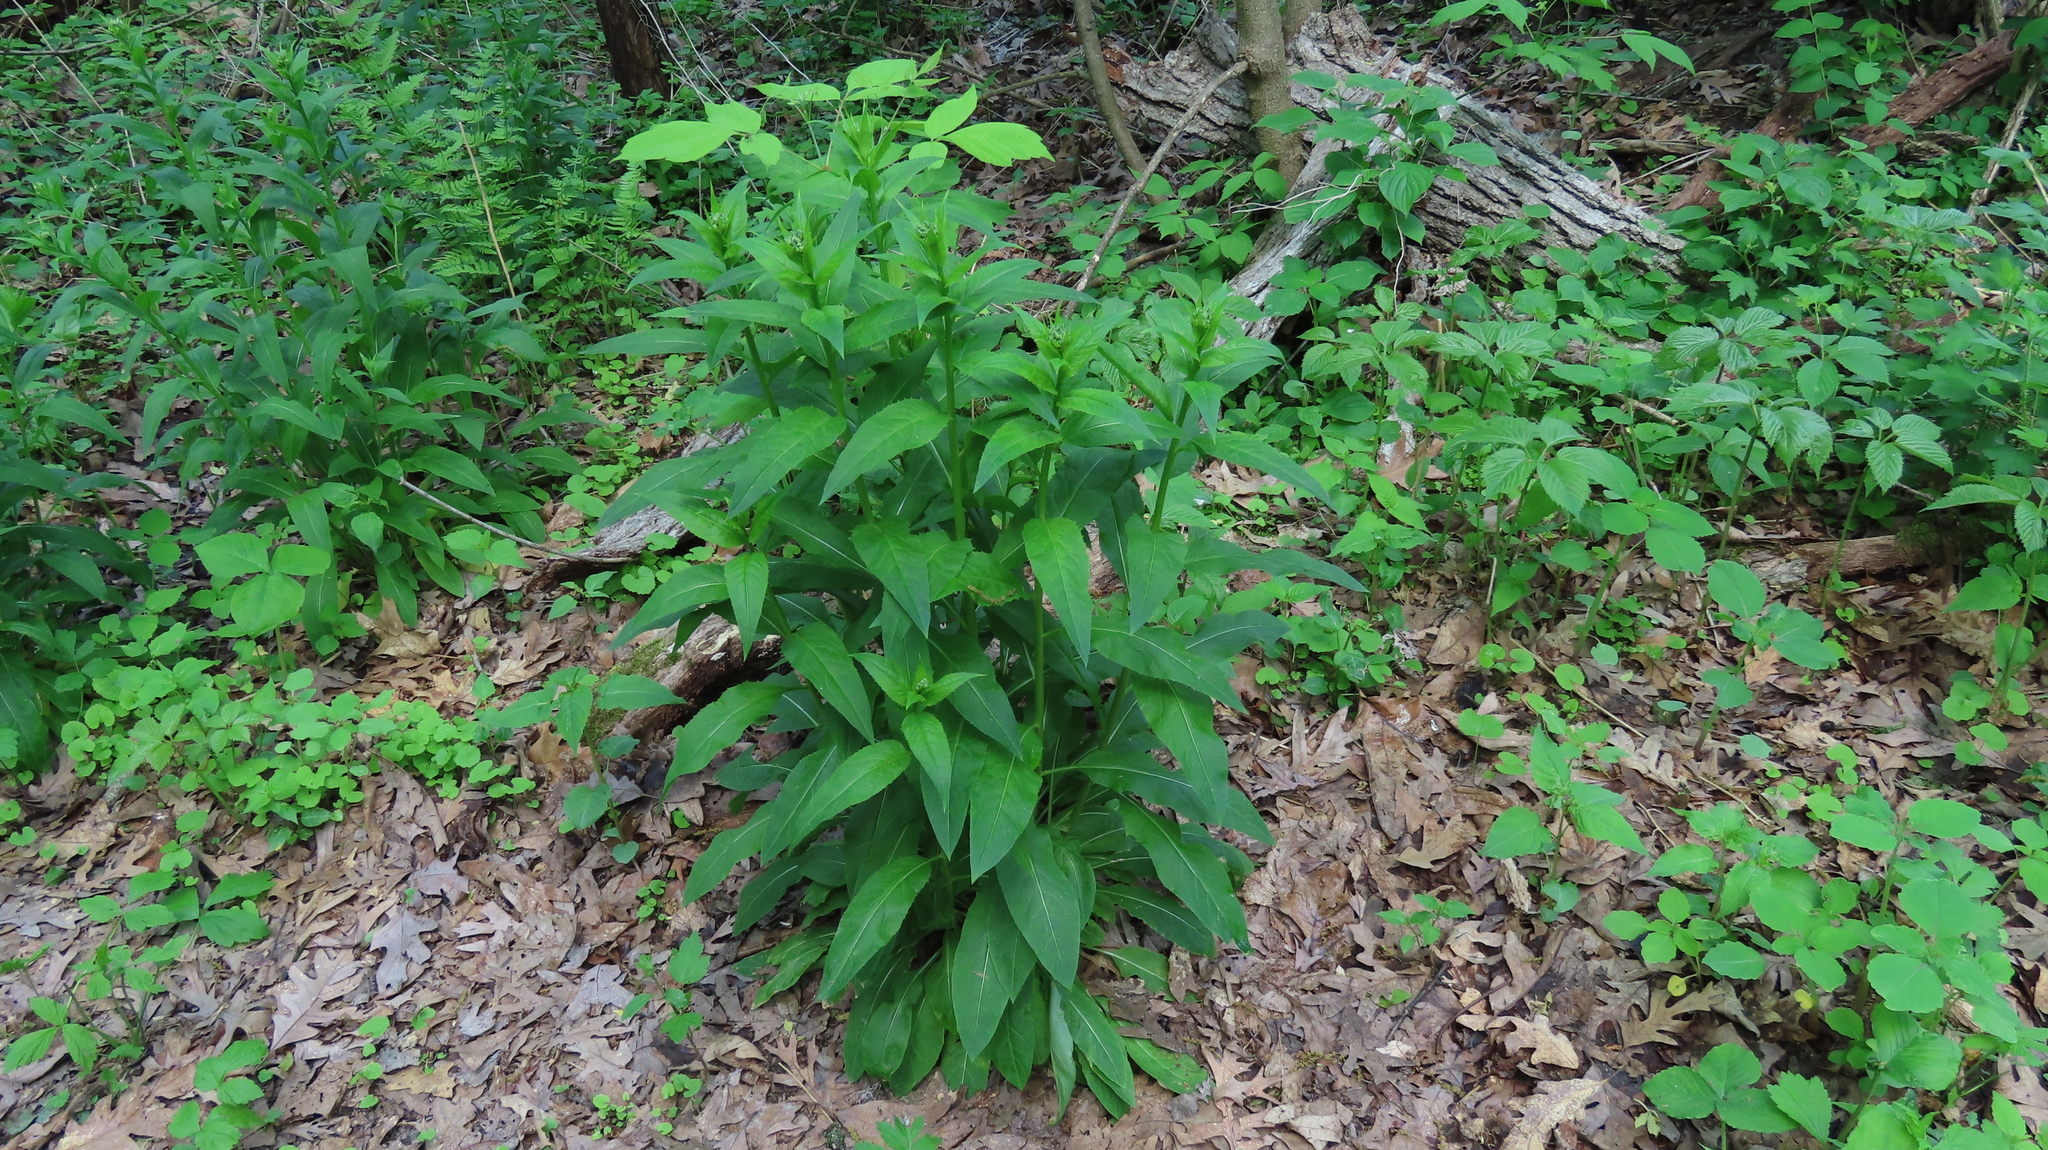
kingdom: Plantae
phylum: Tracheophyta
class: Magnoliopsida
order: Brassicales
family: Brassicaceae
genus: Hesperis
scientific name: Hesperis matronalis
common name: Dame's-violet
